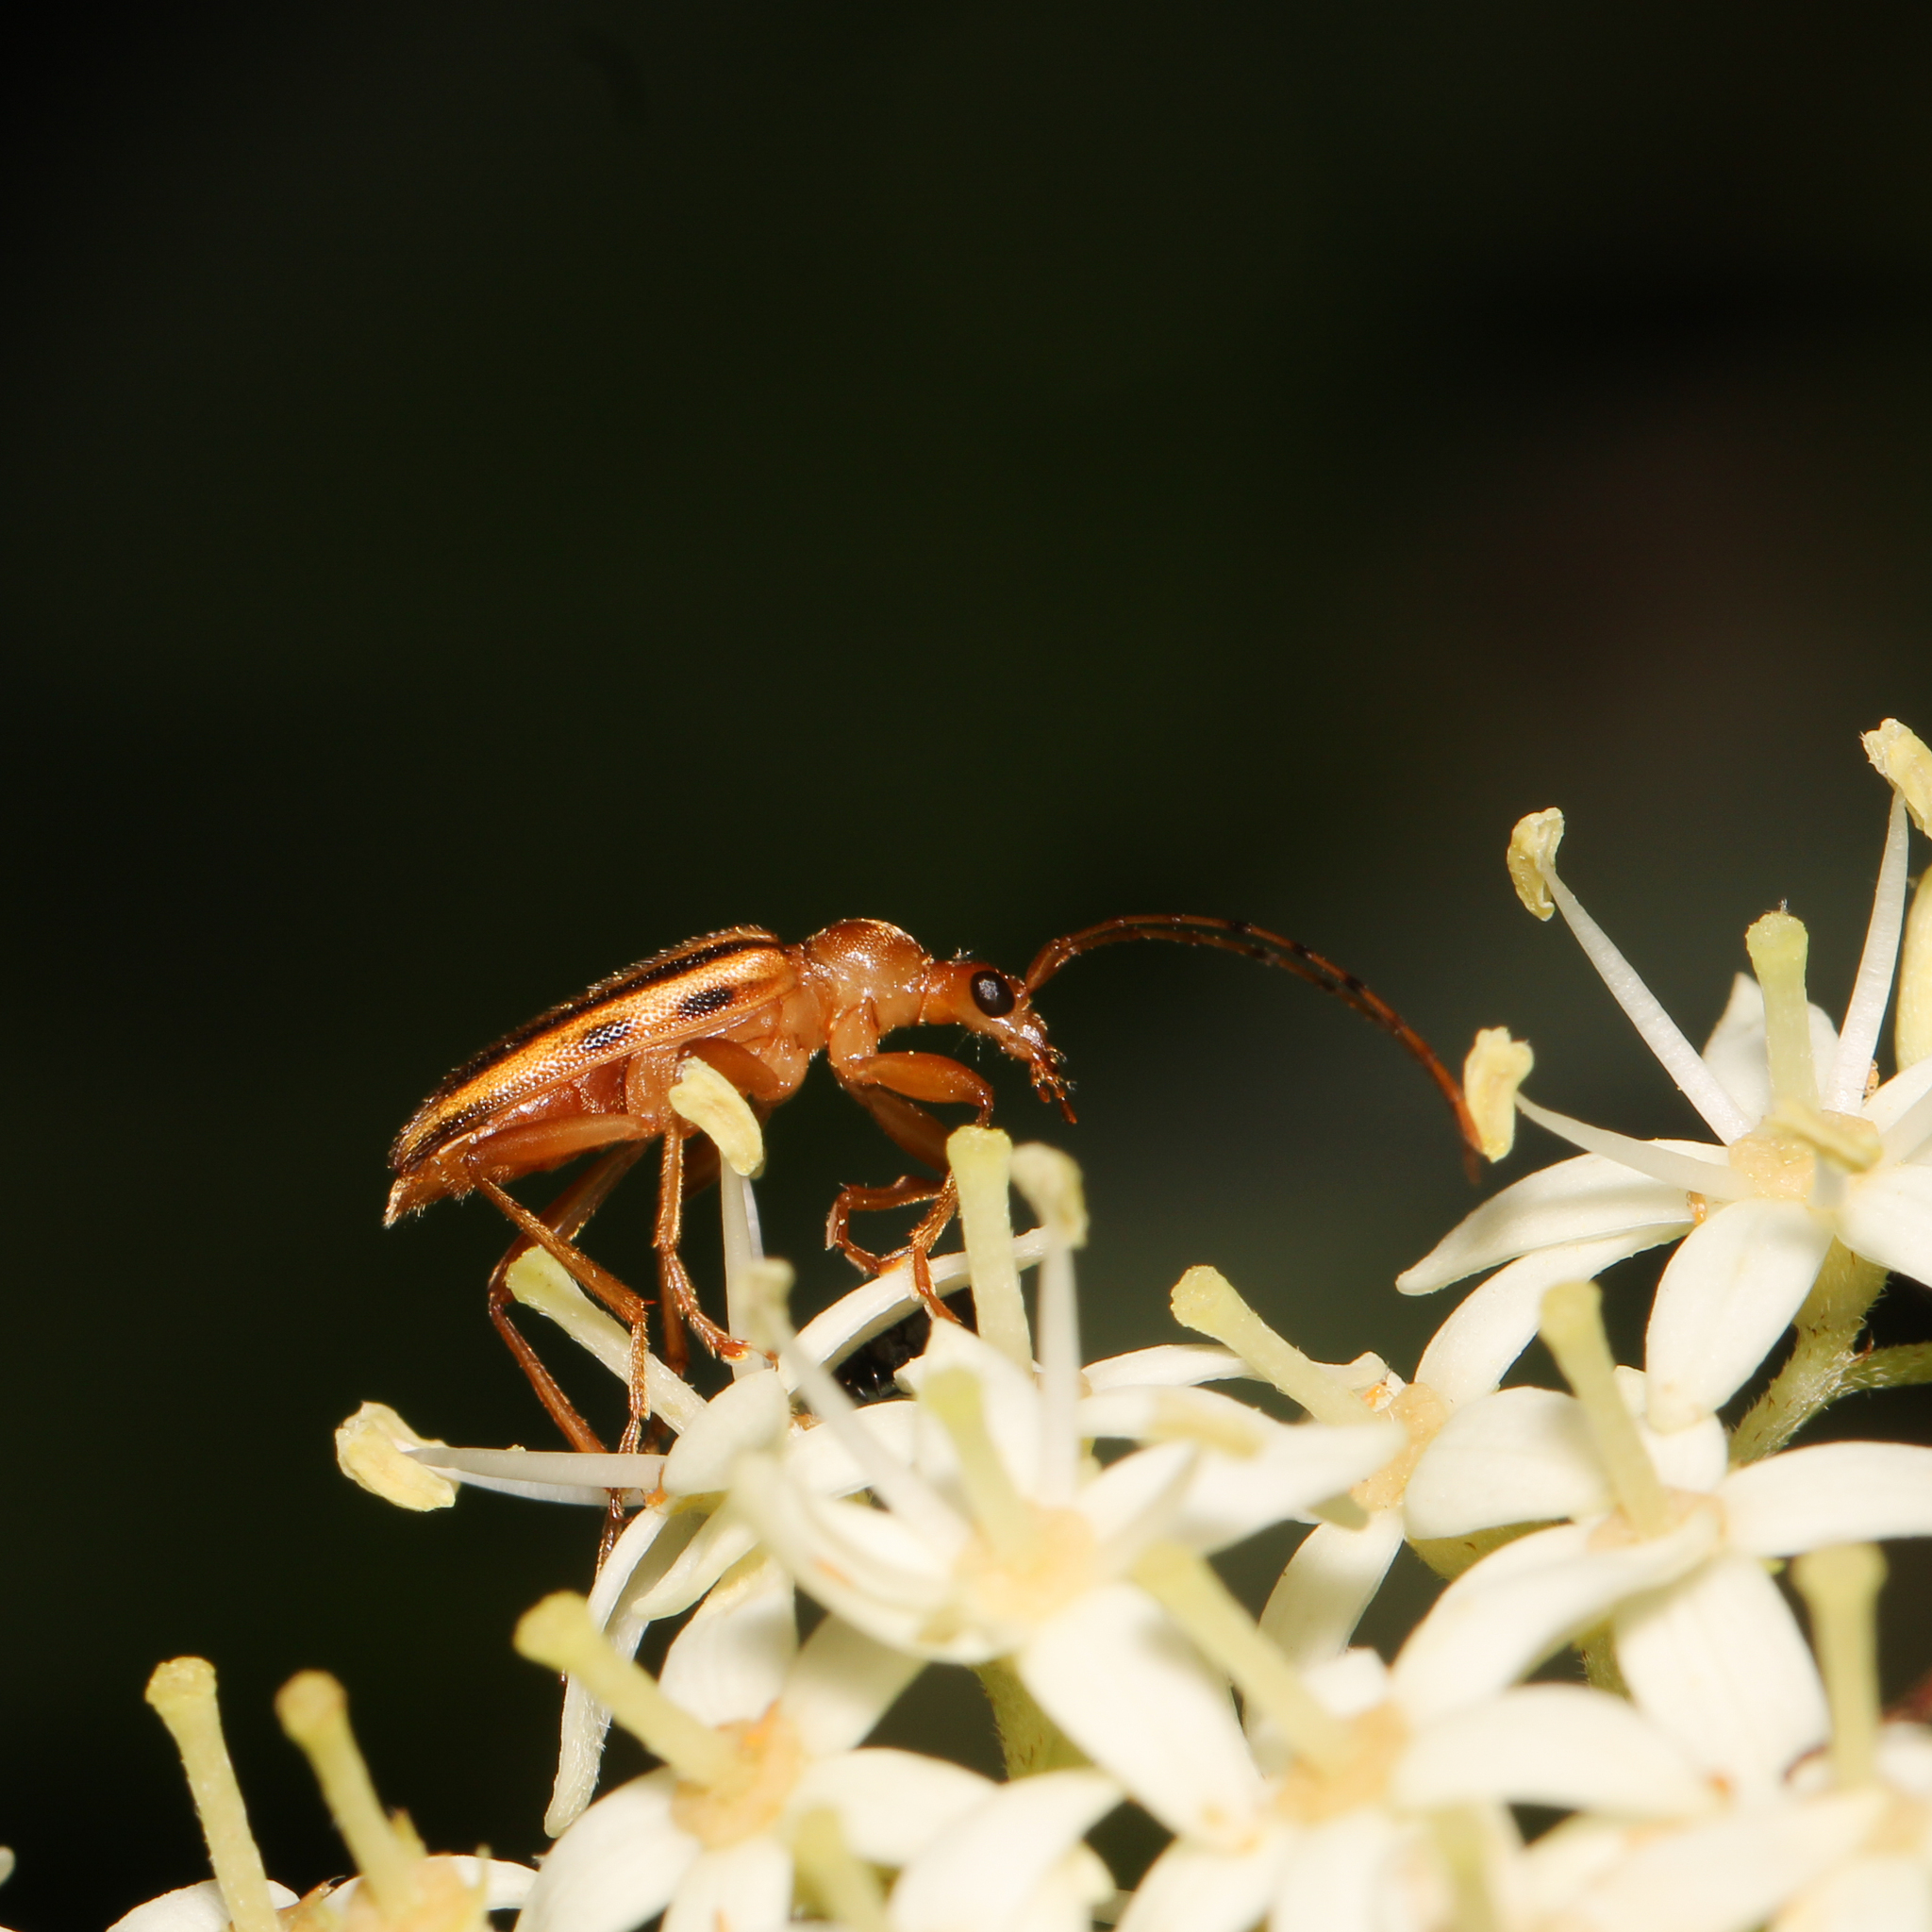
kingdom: Animalia
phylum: Arthropoda
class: Insecta
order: Coleoptera
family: Cerambycidae
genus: Metacmaeops
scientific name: Metacmaeops vittata
